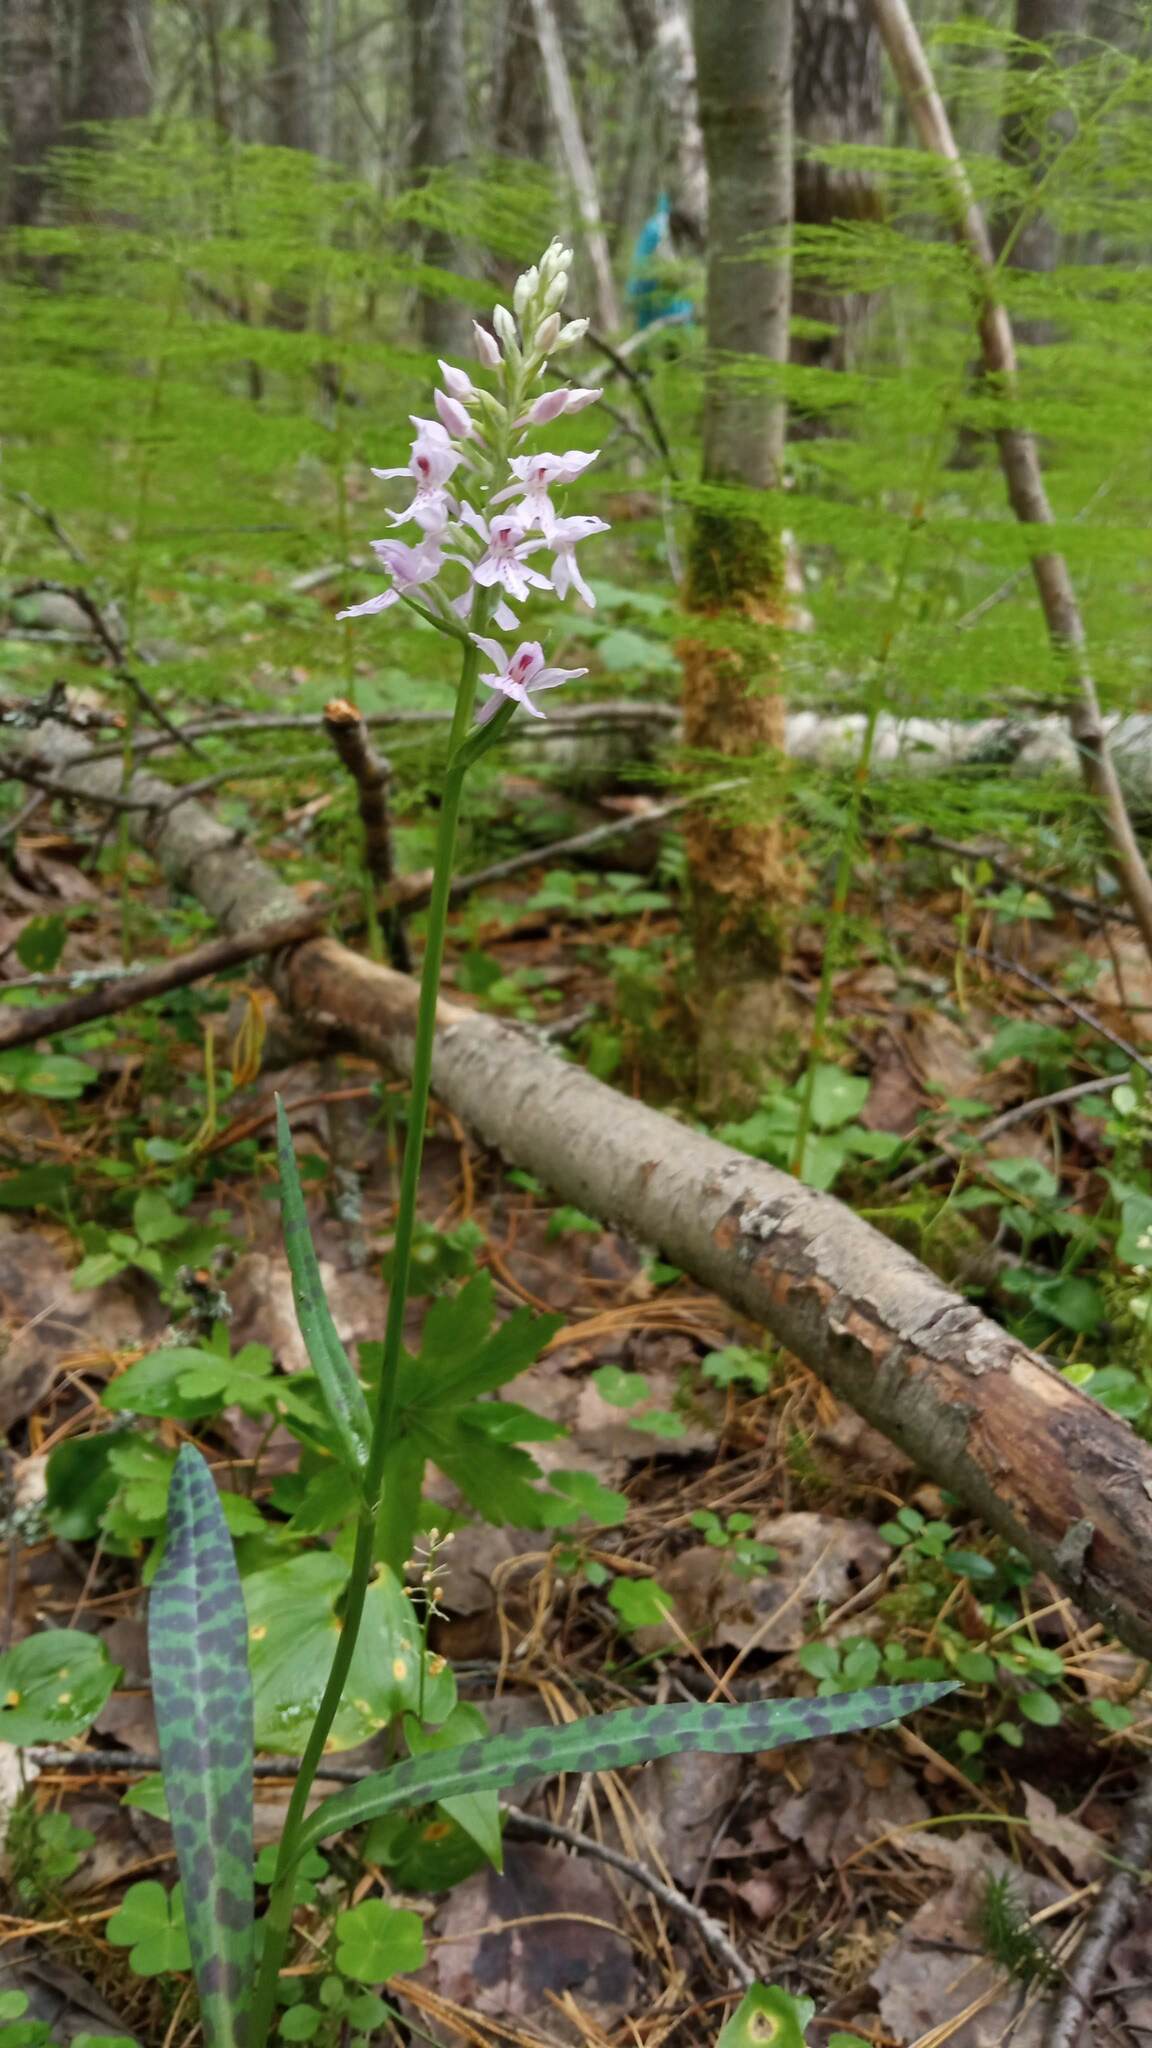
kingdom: Plantae
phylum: Tracheophyta
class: Liliopsida
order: Asparagales
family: Orchidaceae
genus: Dactylorhiza
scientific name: Dactylorhiza maculata
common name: Heath spotted-orchid
